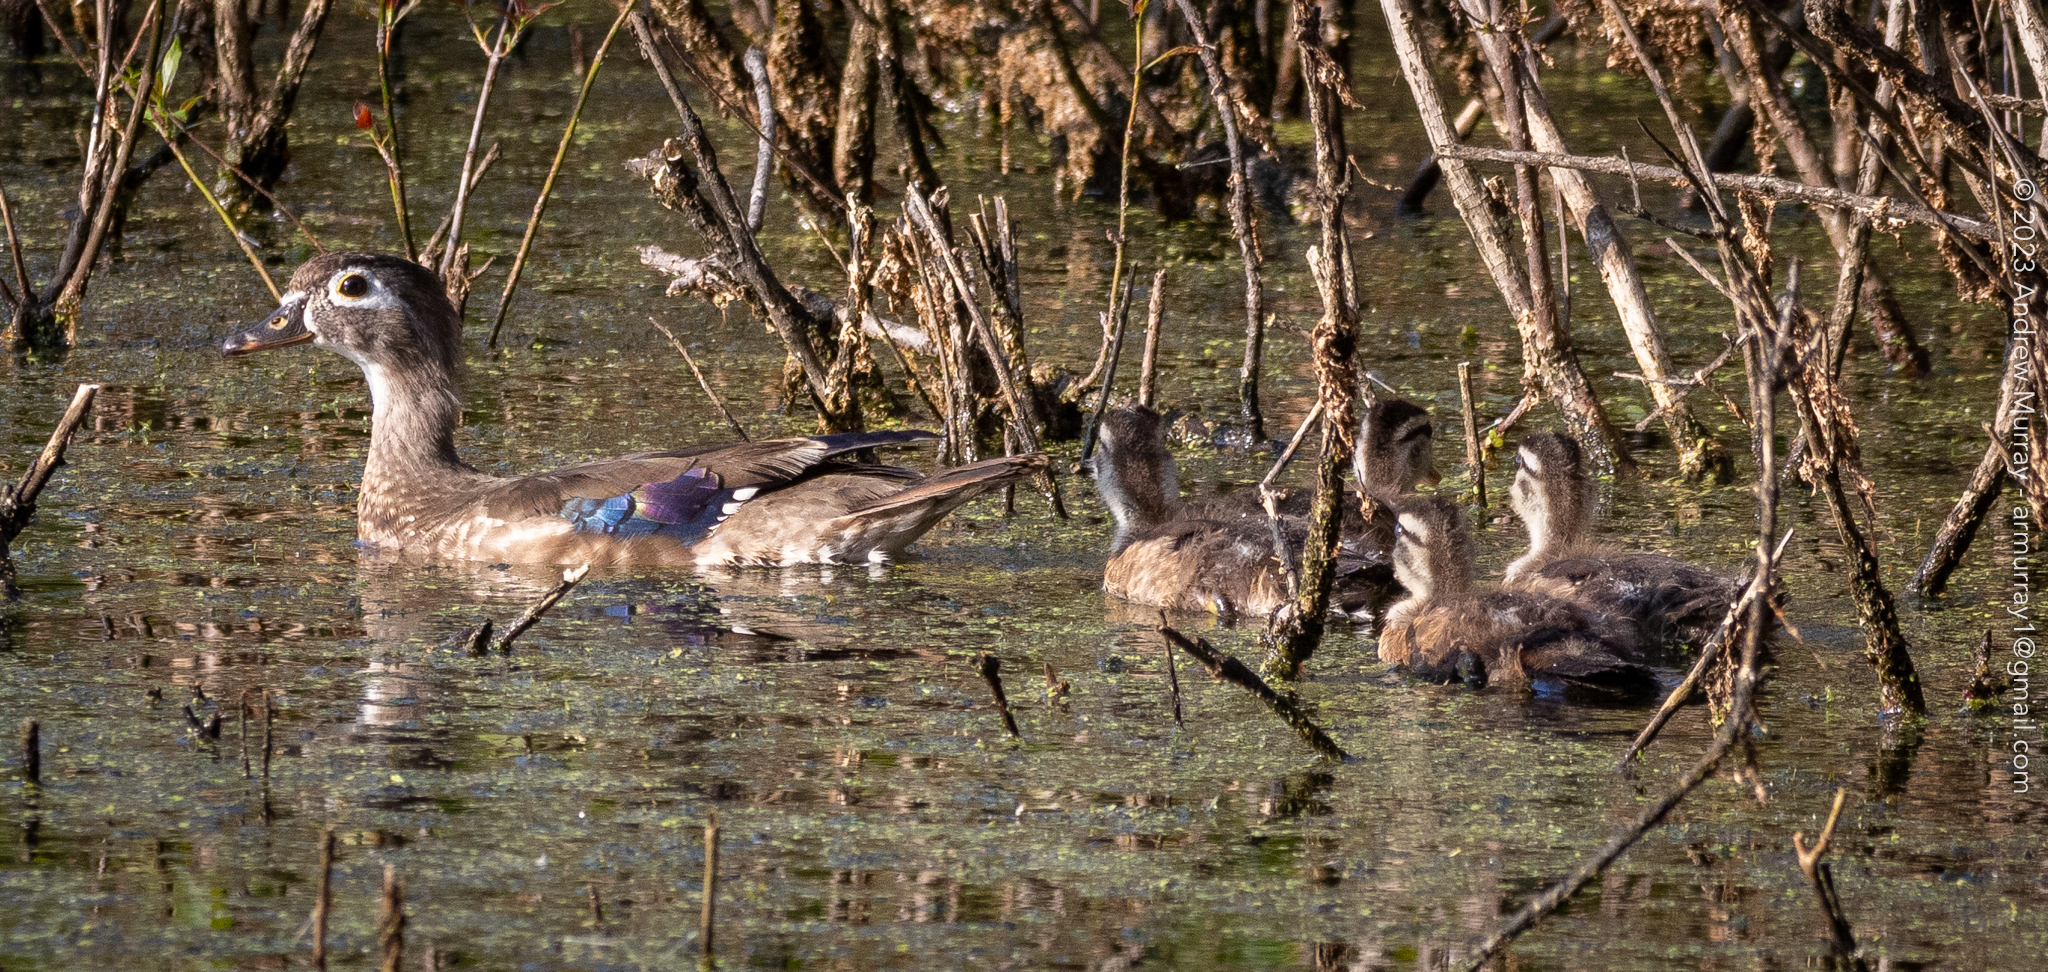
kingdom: Animalia
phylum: Chordata
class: Aves
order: Anseriformes
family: Anatidae
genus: Aix
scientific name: Aix sponsa
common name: Wood duck
